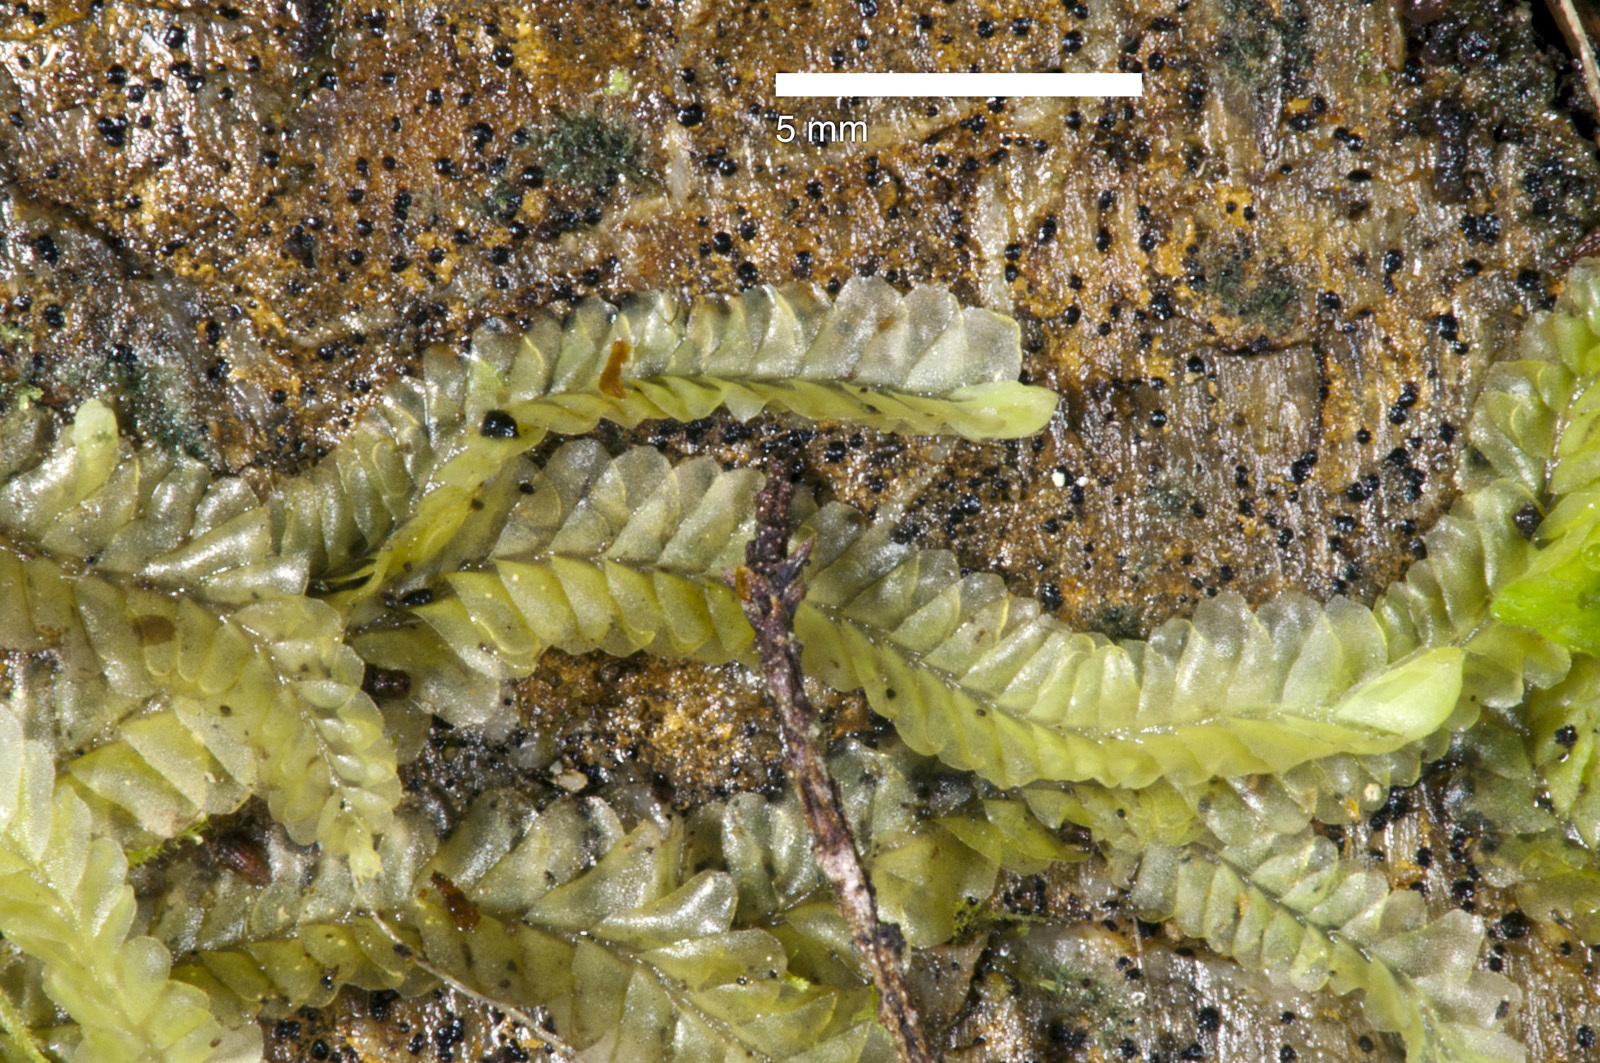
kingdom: Plantae
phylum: Marchantiophyta
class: Jungermanniopsida
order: Jungermanniales
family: Lophocoleaceae
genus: Leptoscyphus
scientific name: Leptoscyphus beckettianus
